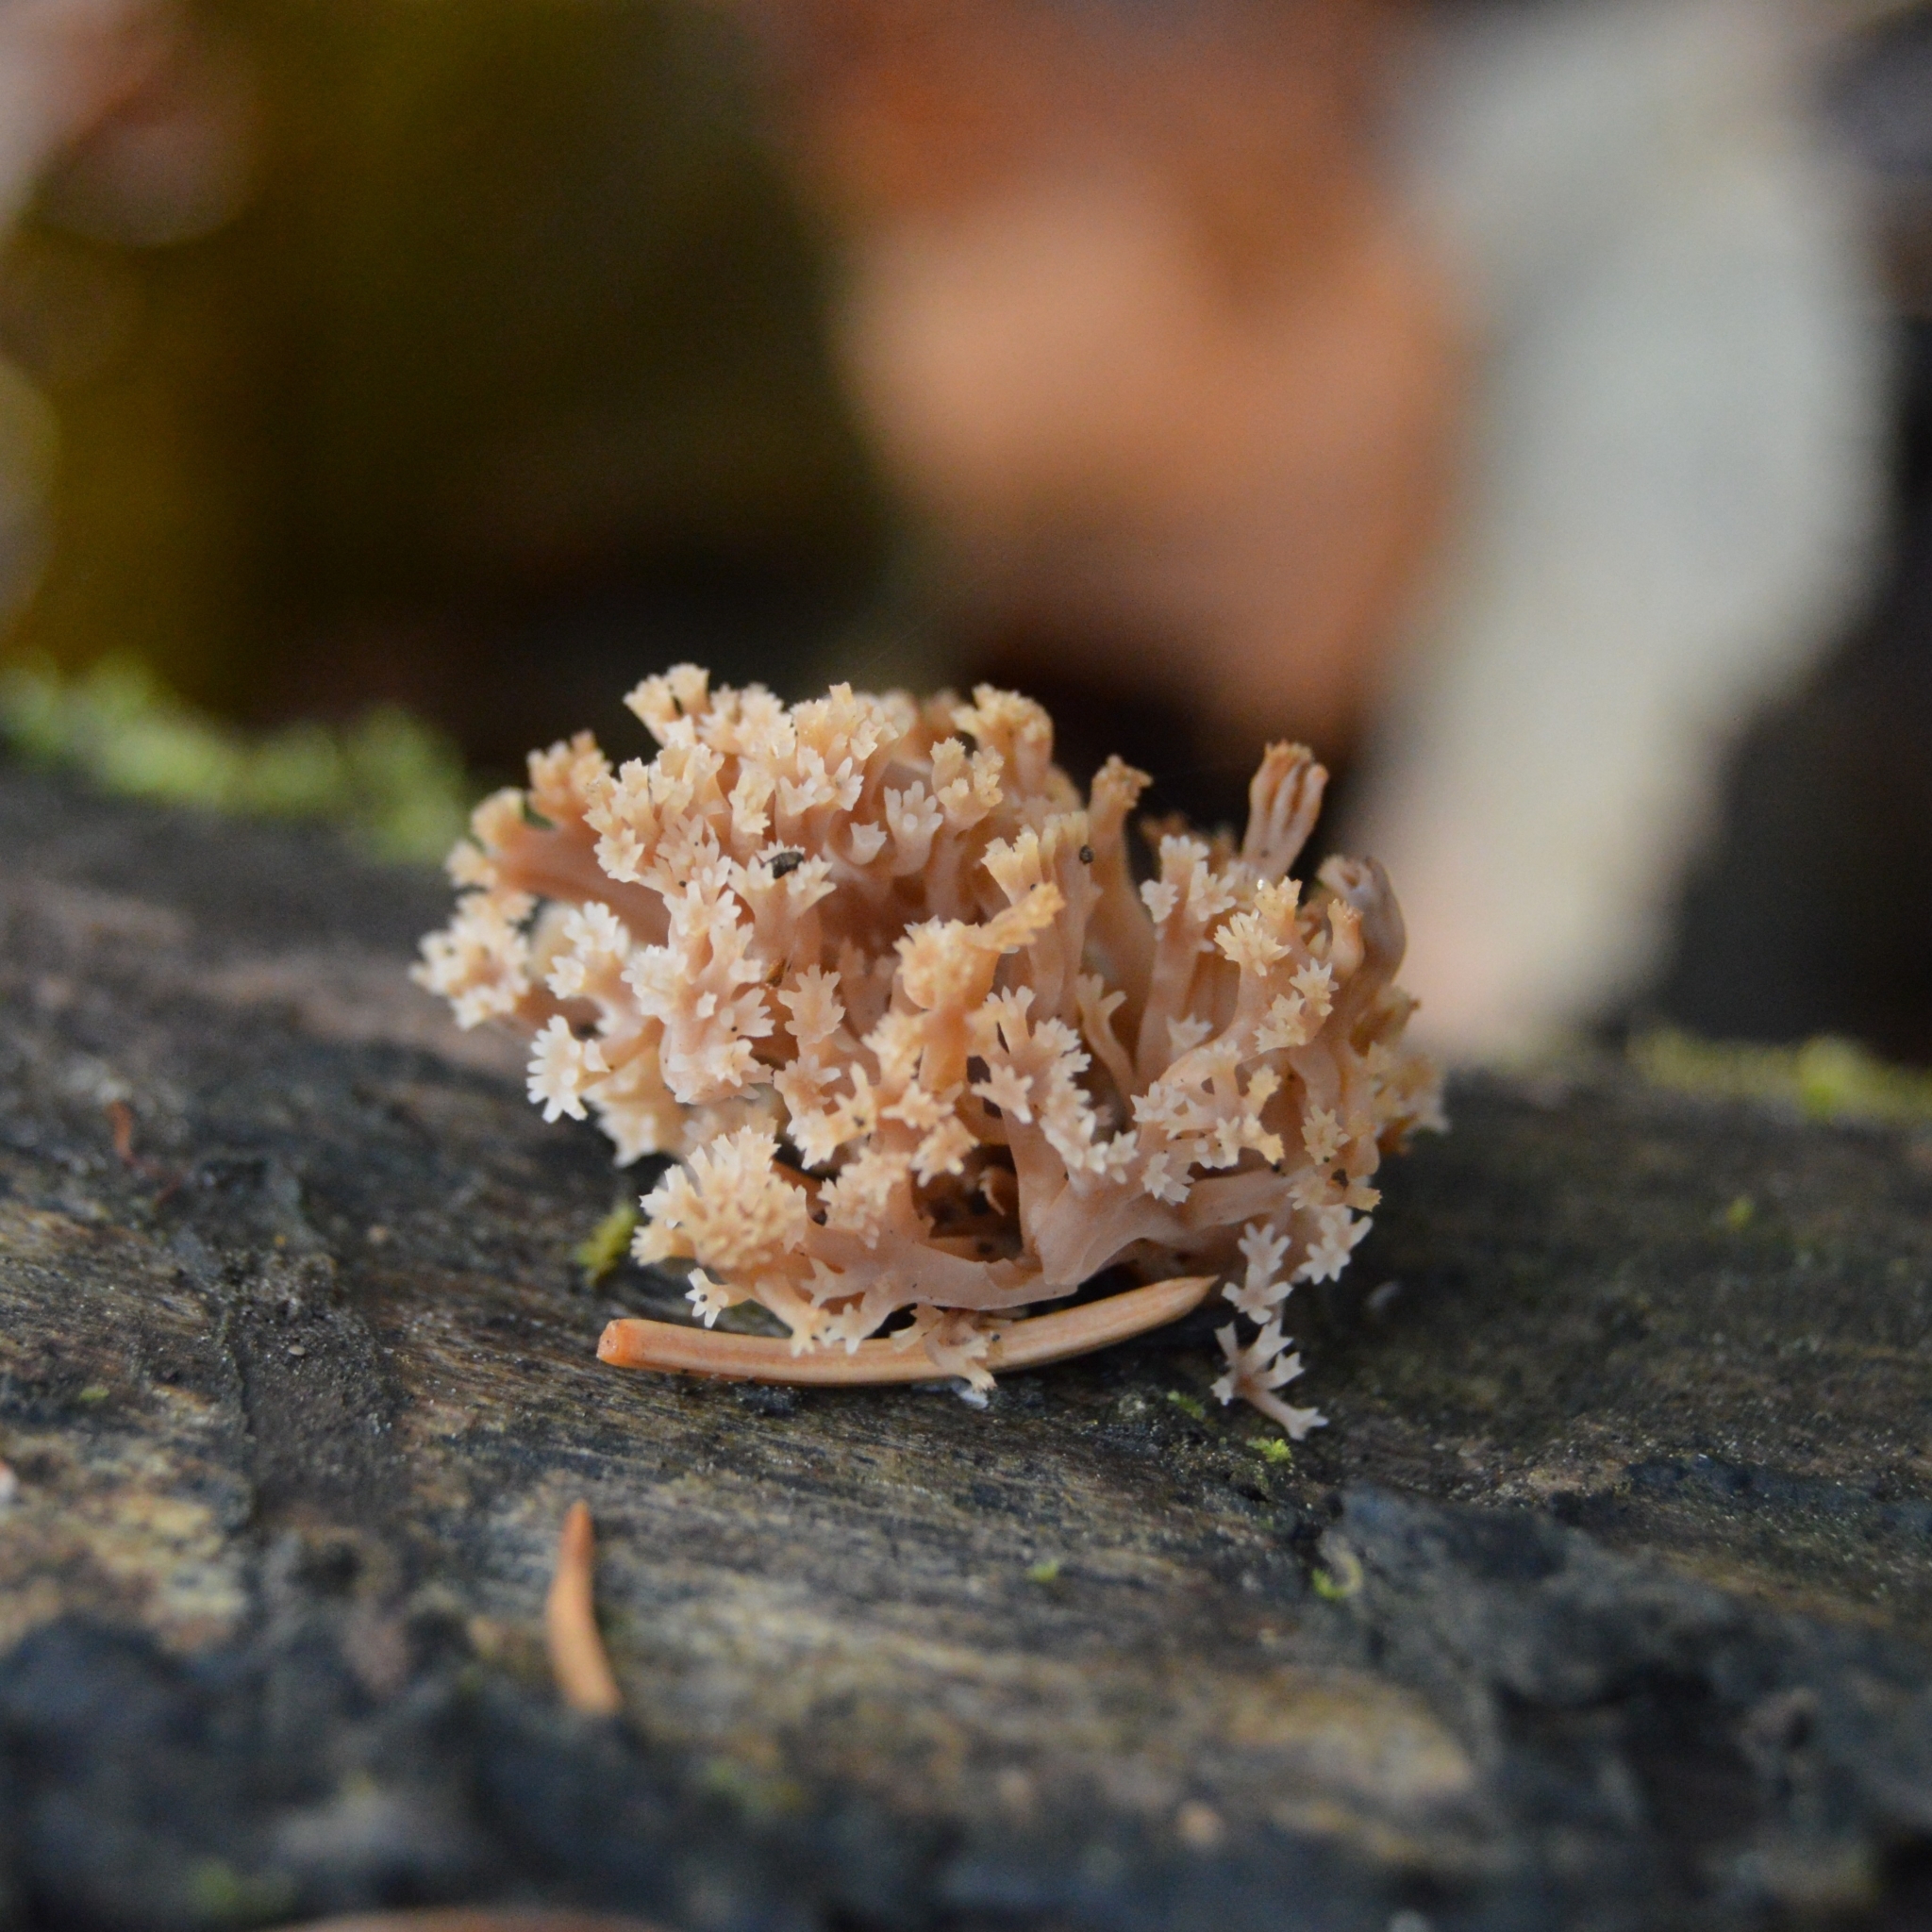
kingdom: Fungi
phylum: Basidiomycota
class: Agaricomycetes
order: Russulales
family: Auriscalpiaceae
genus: Artomyces
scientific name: Artomyces
